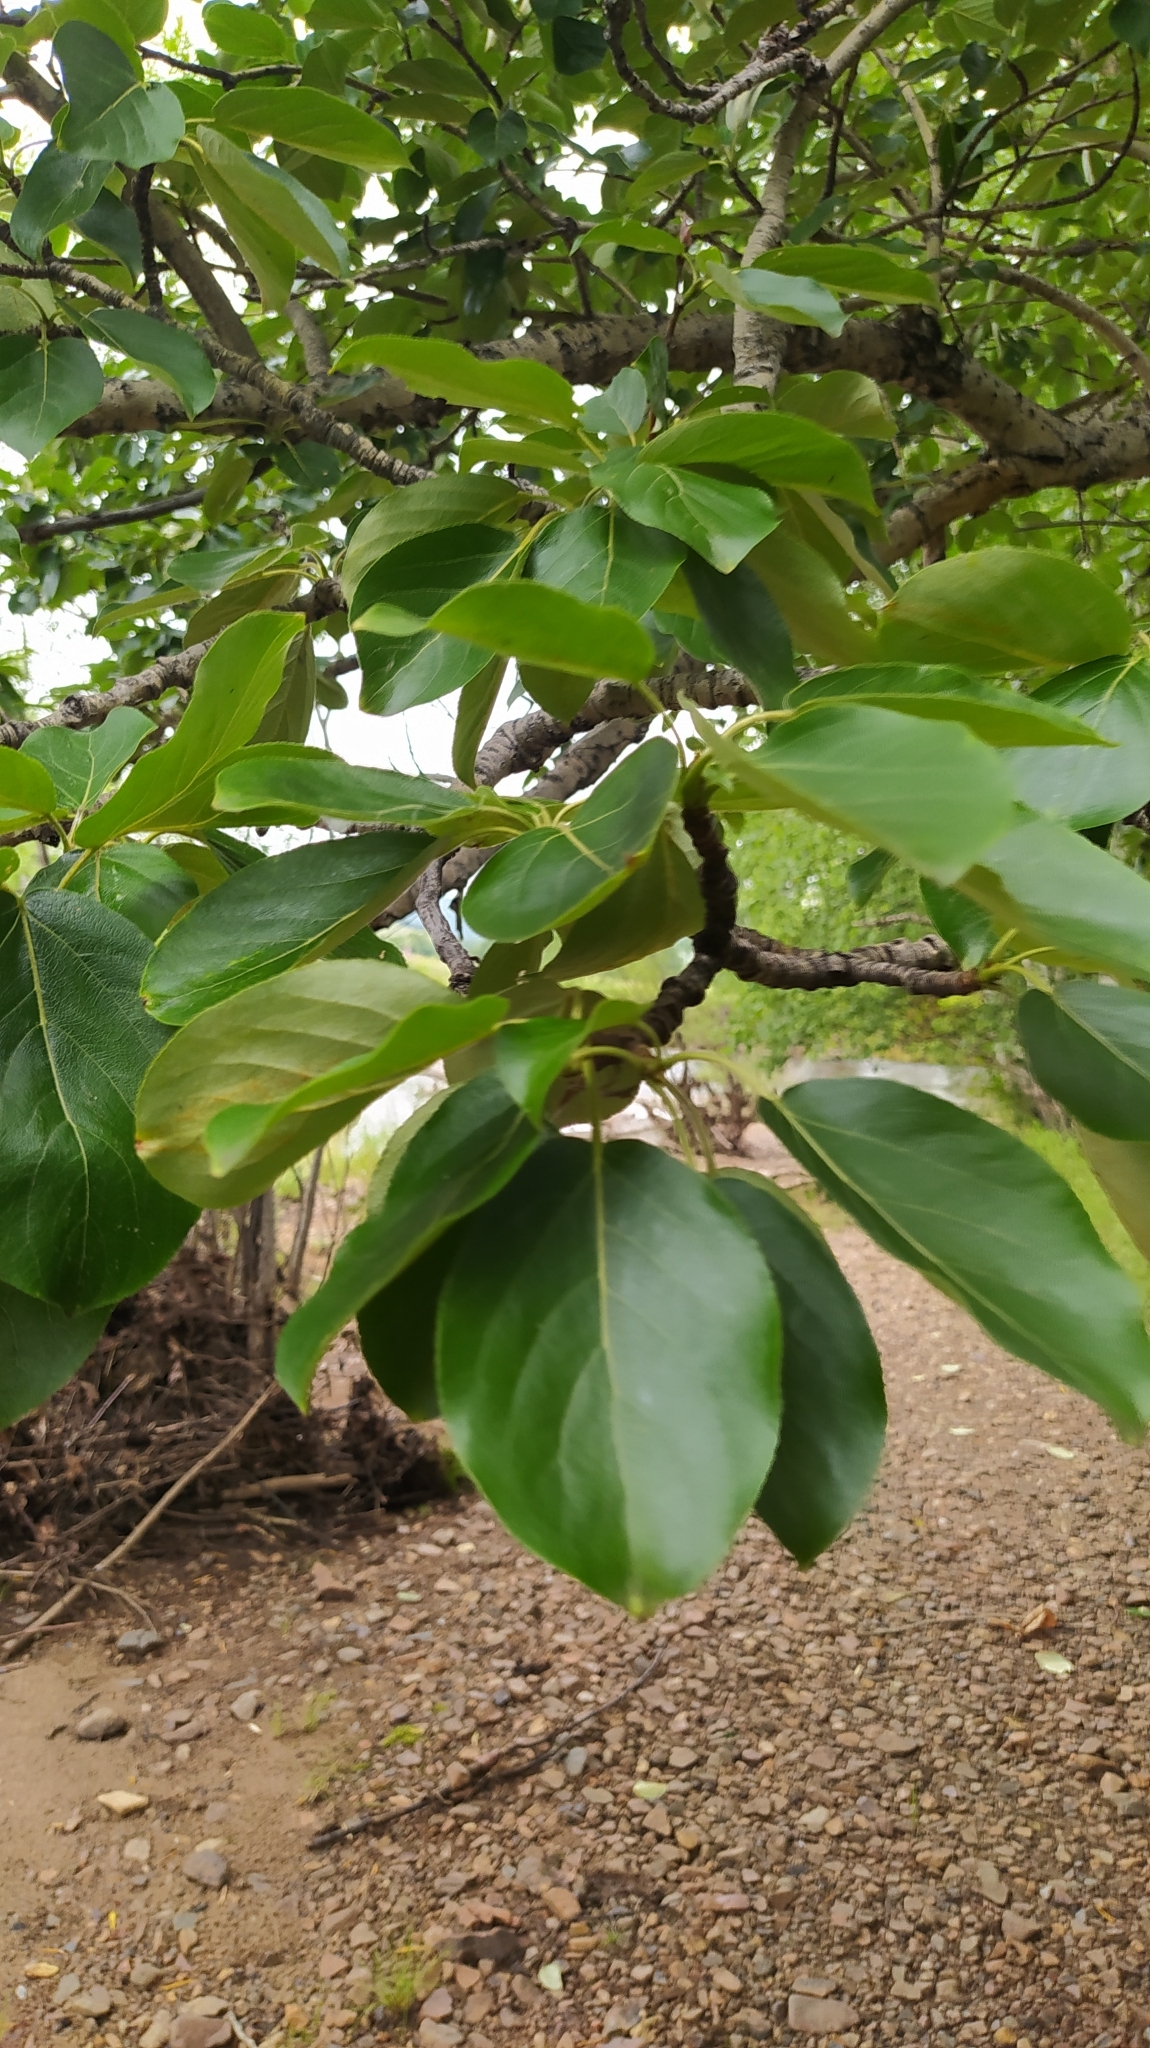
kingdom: Plantae
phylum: Tracheophyta
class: Magnoliopsida
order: Malpighiales
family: Salicaceae
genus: Populus
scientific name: Populus suaveolens
